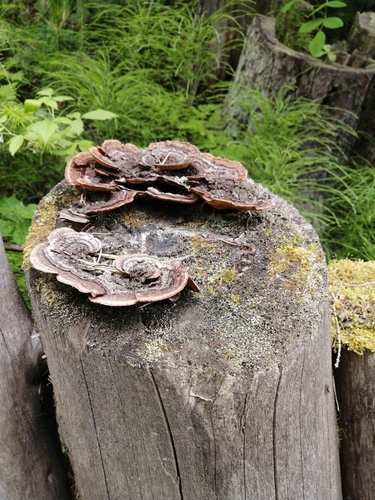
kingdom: Fungi
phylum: Basidiomycota
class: Agaricomycetes
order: Gloeophyllales
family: Gloeophyllaceae
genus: Gloeophyllum
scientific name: Gloeophyllum sepiarium
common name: Conifer mazegill
